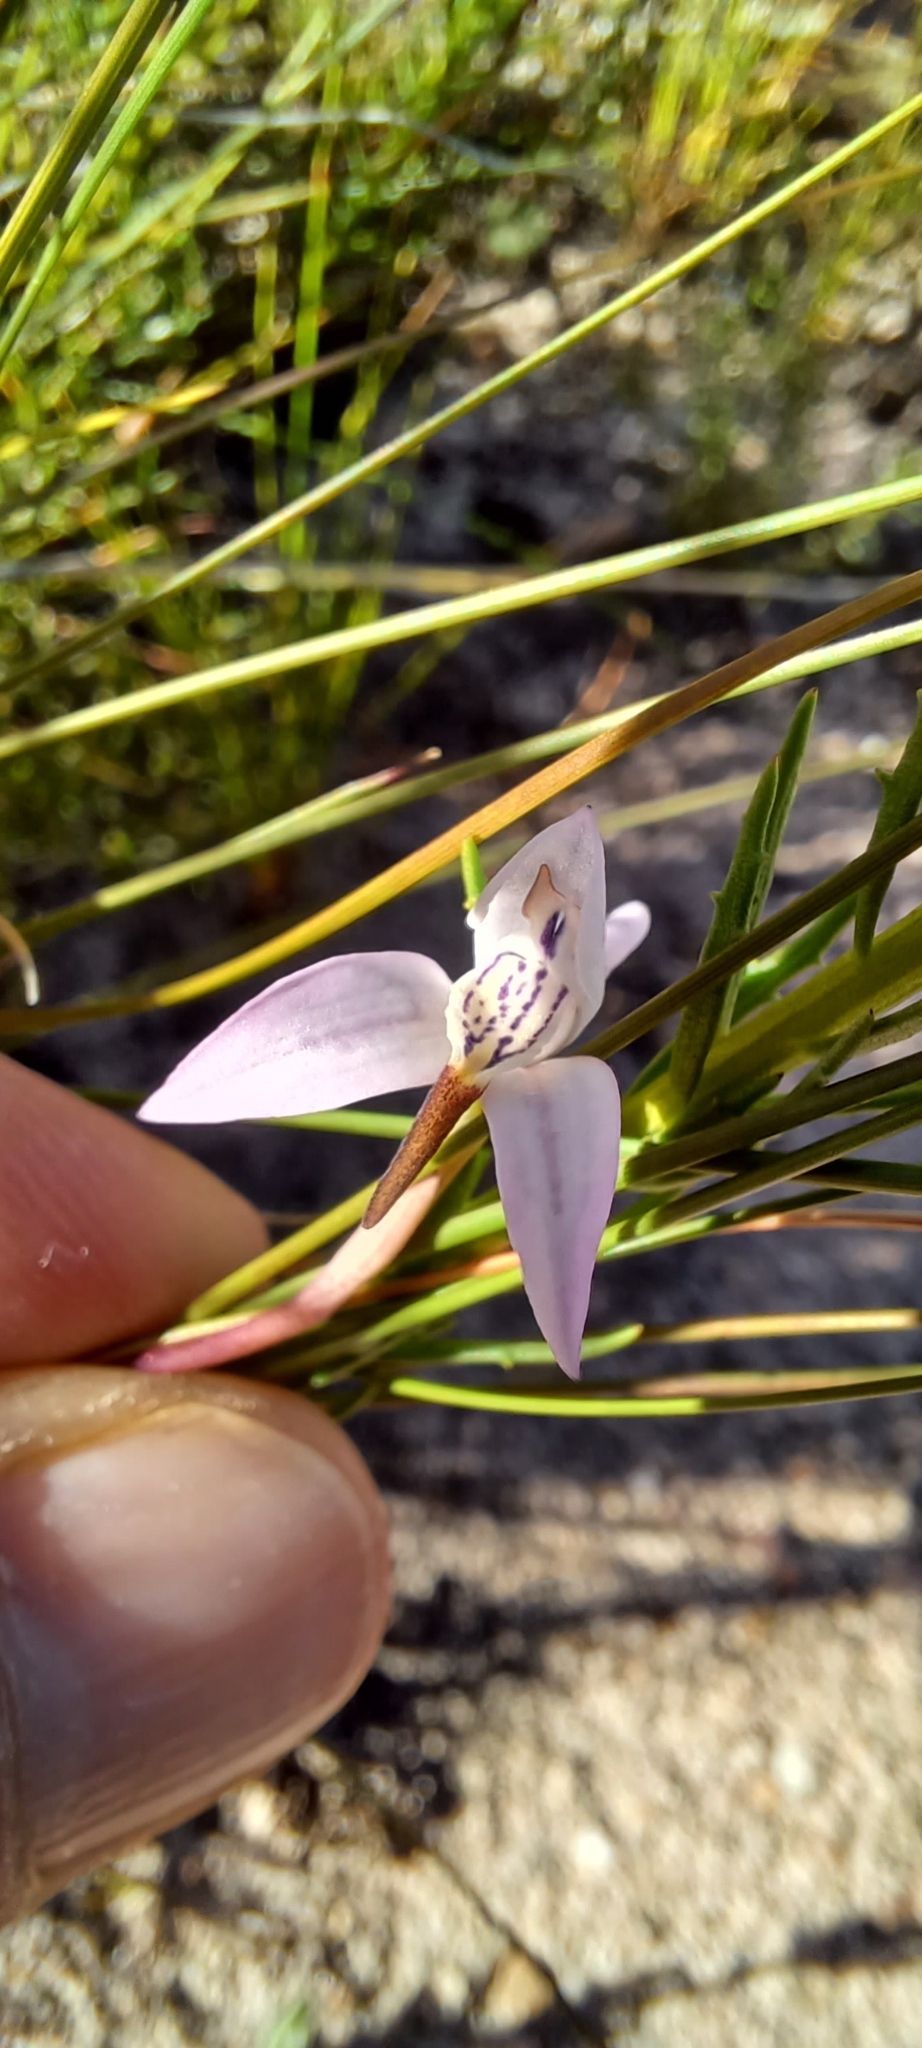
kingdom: Plantae
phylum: Tracheophyta
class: Liliopsida
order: Asparagales
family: Orchidaceae
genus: Disa
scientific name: Disa bifida
